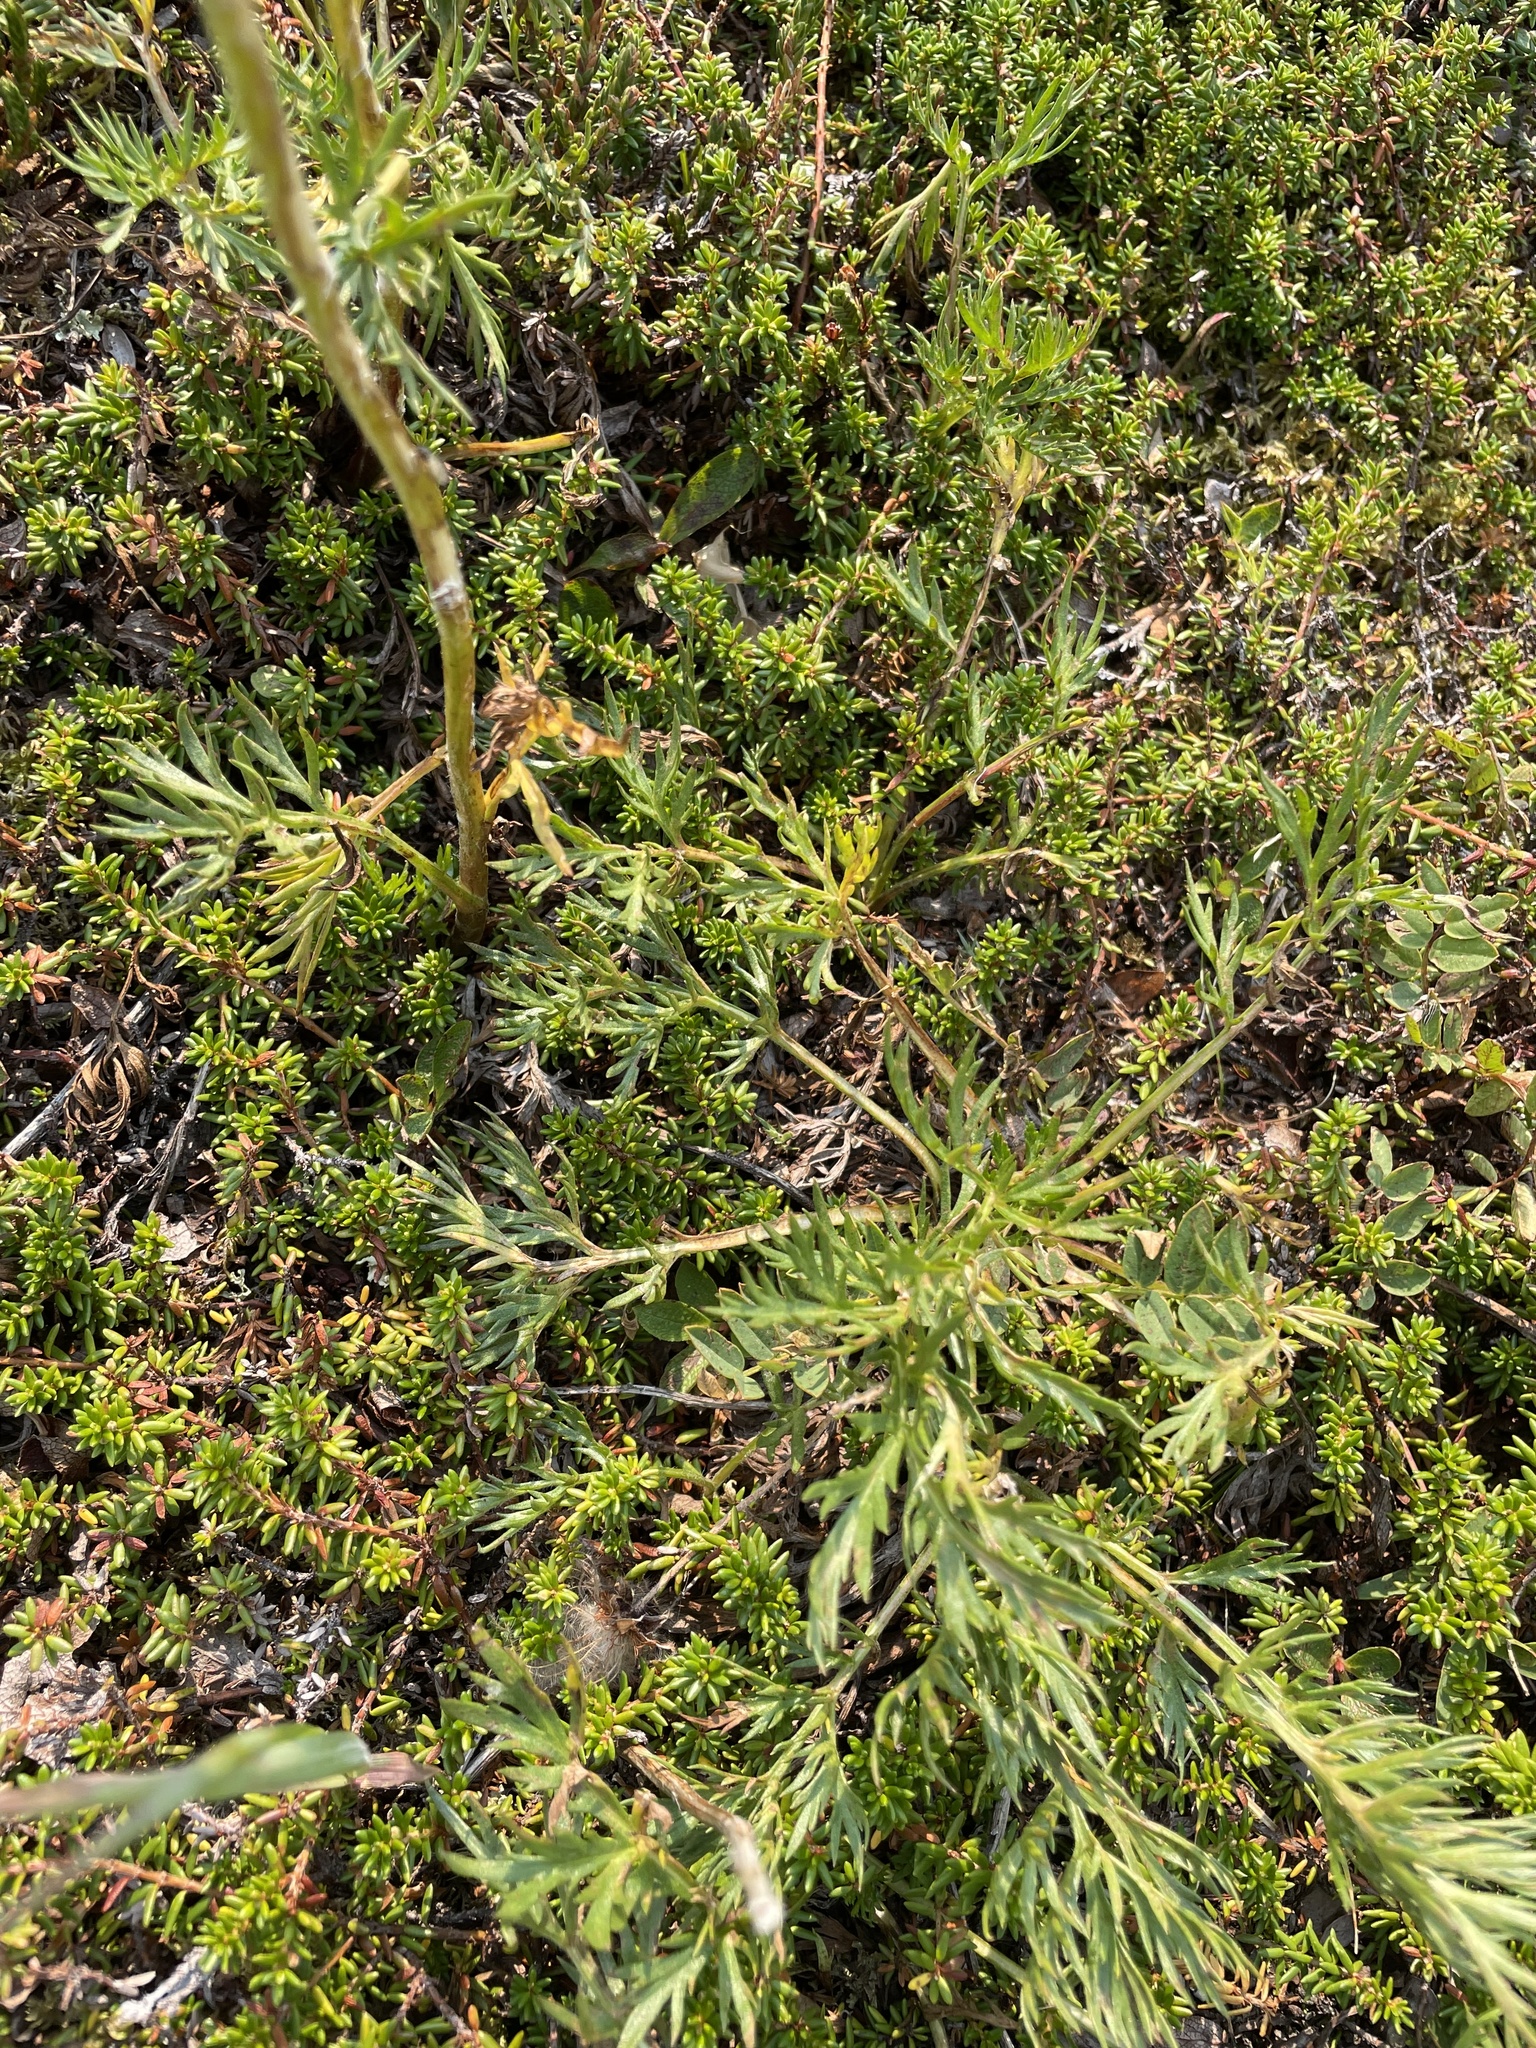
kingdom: Plantae
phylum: Tracheophyta
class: Magnoliopsida
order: Asterales
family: Asteraceae
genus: Artemisia
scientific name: Artemisia norvegica
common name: Norwegian mugwort
